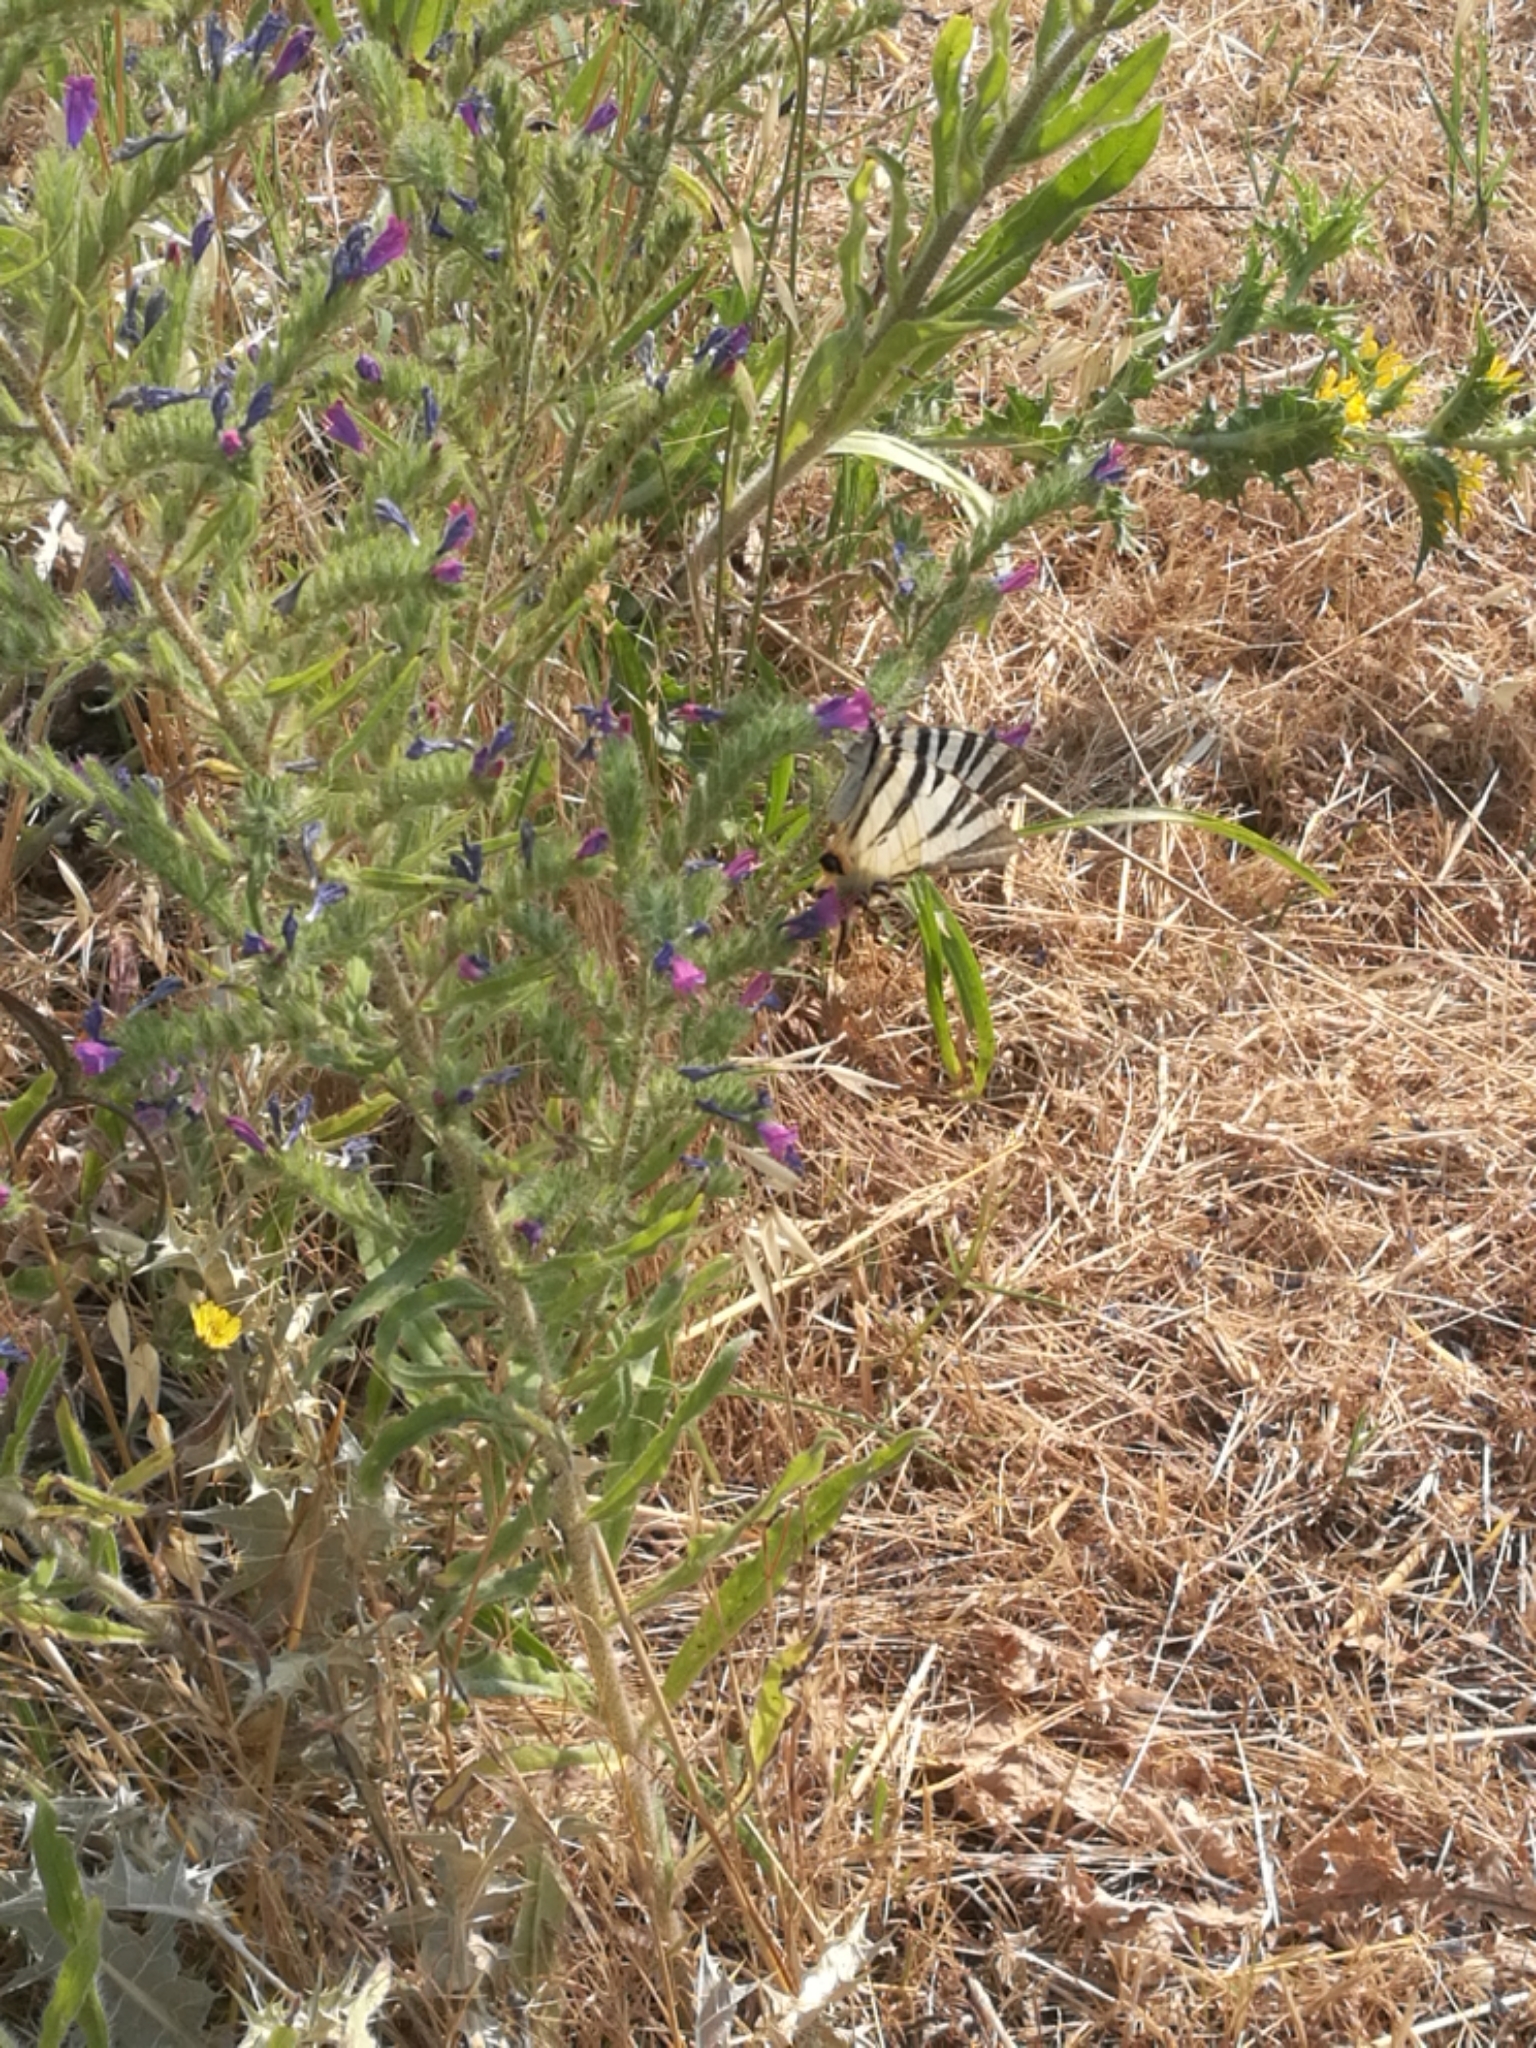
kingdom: Animalia
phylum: Arthropoda
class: Insecta
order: Lepidoptera
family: Papilionidae
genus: Iphiclides
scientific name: Iphiclides podalirius
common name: Scarce swallowtail
